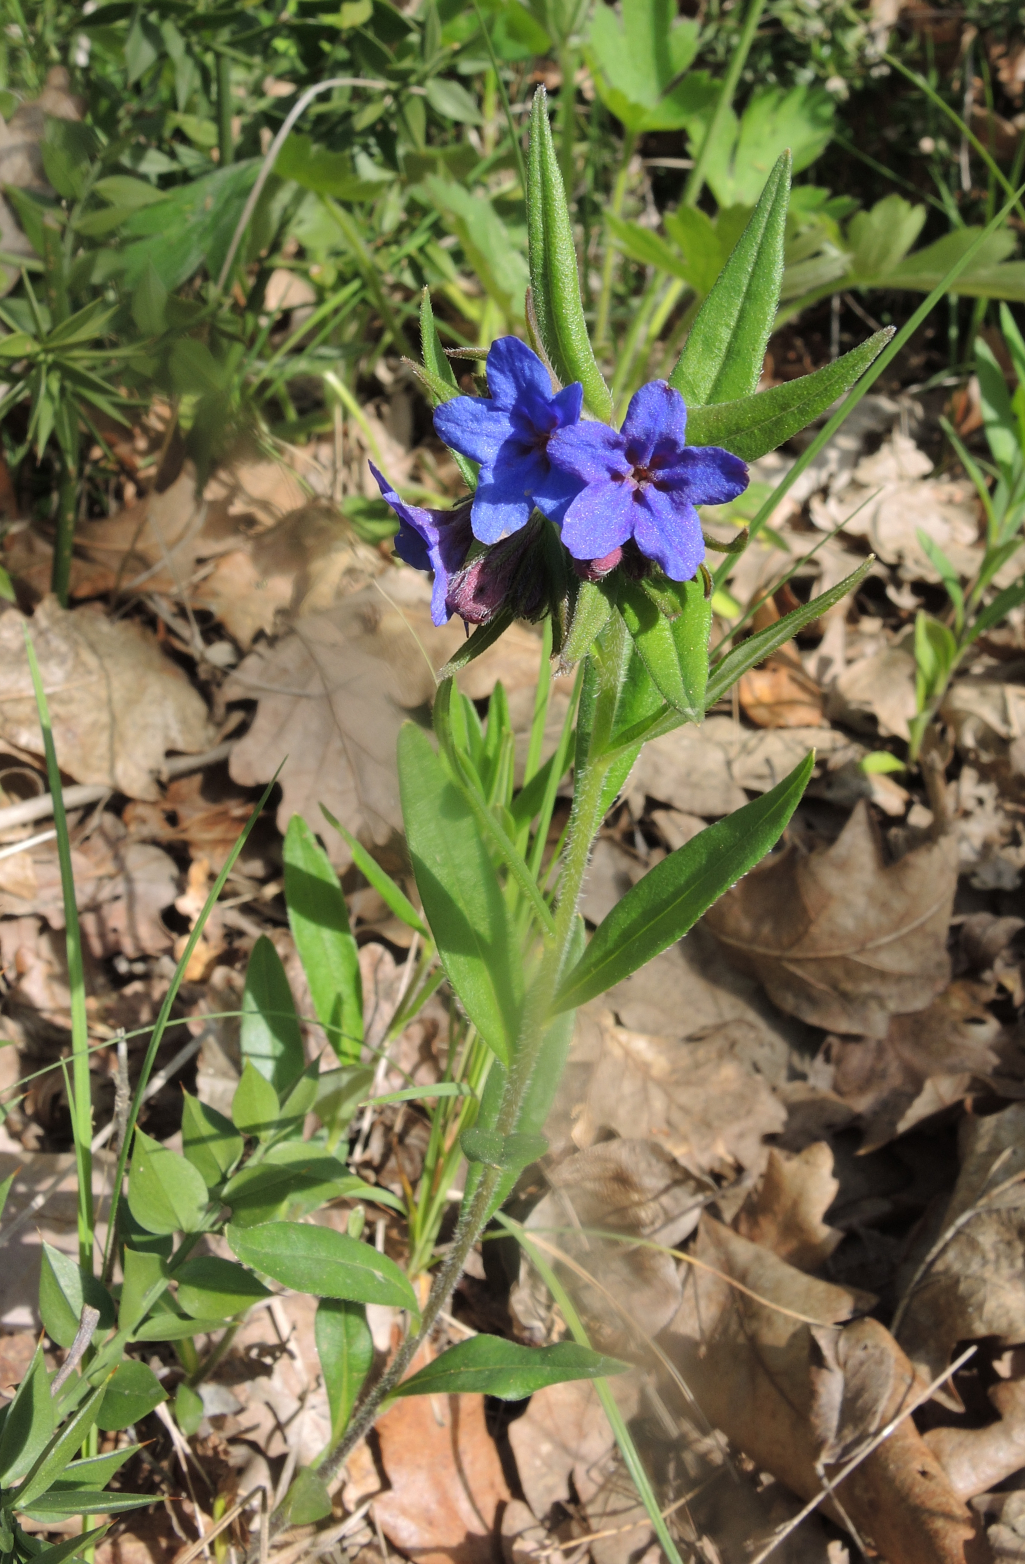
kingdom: Plantae
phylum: Tracheophyta
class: Magnoliopsida
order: Boraginales
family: Boraginaceae
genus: Aegonychon
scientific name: Aegonychon purpurocaeruleum
